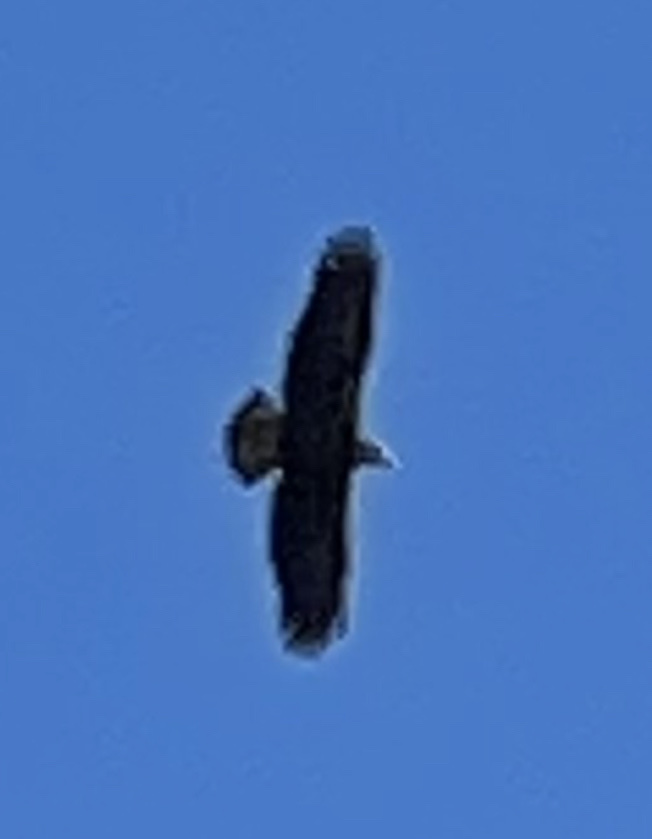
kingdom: Animalia
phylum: Chordata
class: Aves
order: Accipitriformes
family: Accipitridae
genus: Haliaeetus
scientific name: Haliaeetus leucocephalus
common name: Bald eagle
